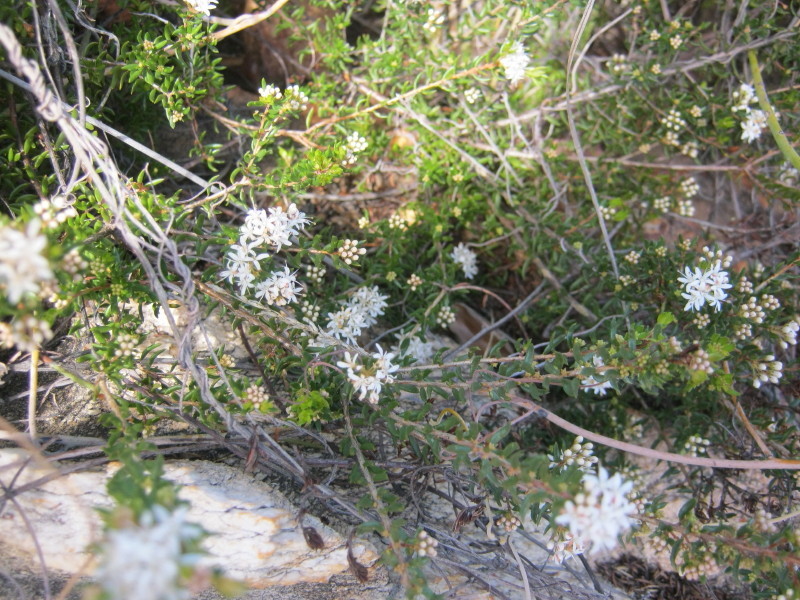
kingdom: Plantae
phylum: Tracheophyta
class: Magnoliopsida
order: Sapindales
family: Rutaceae
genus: Agathosma
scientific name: Agathosma mundtii
